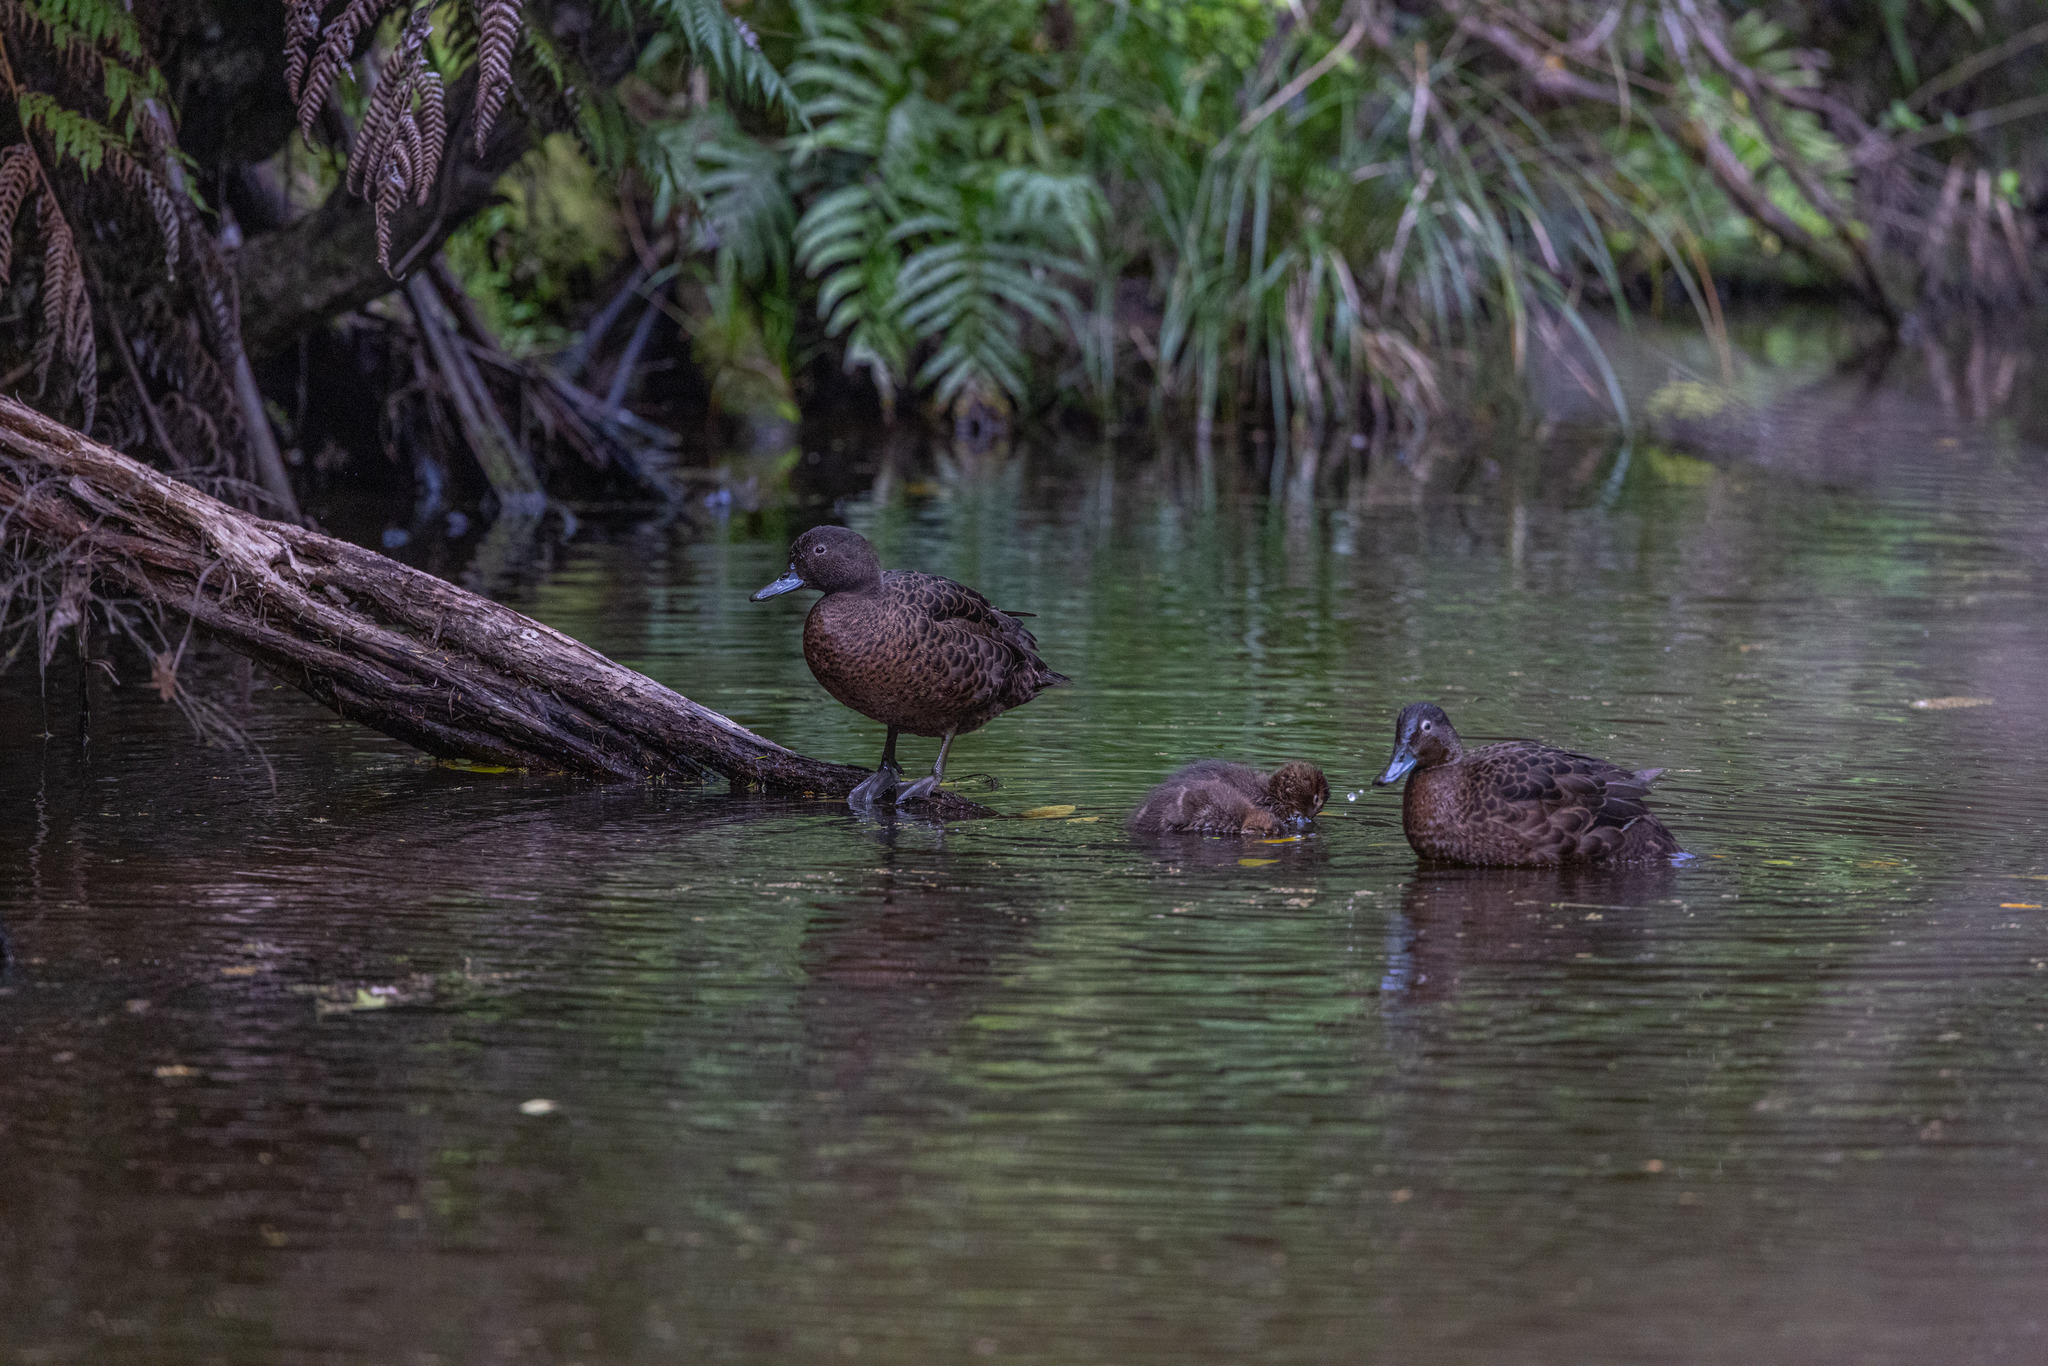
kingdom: Animalia
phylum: Chordata
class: Aves
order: Anseriformes
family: Anatidae
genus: Anas
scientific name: Anas chlorotis
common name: Brown teal
